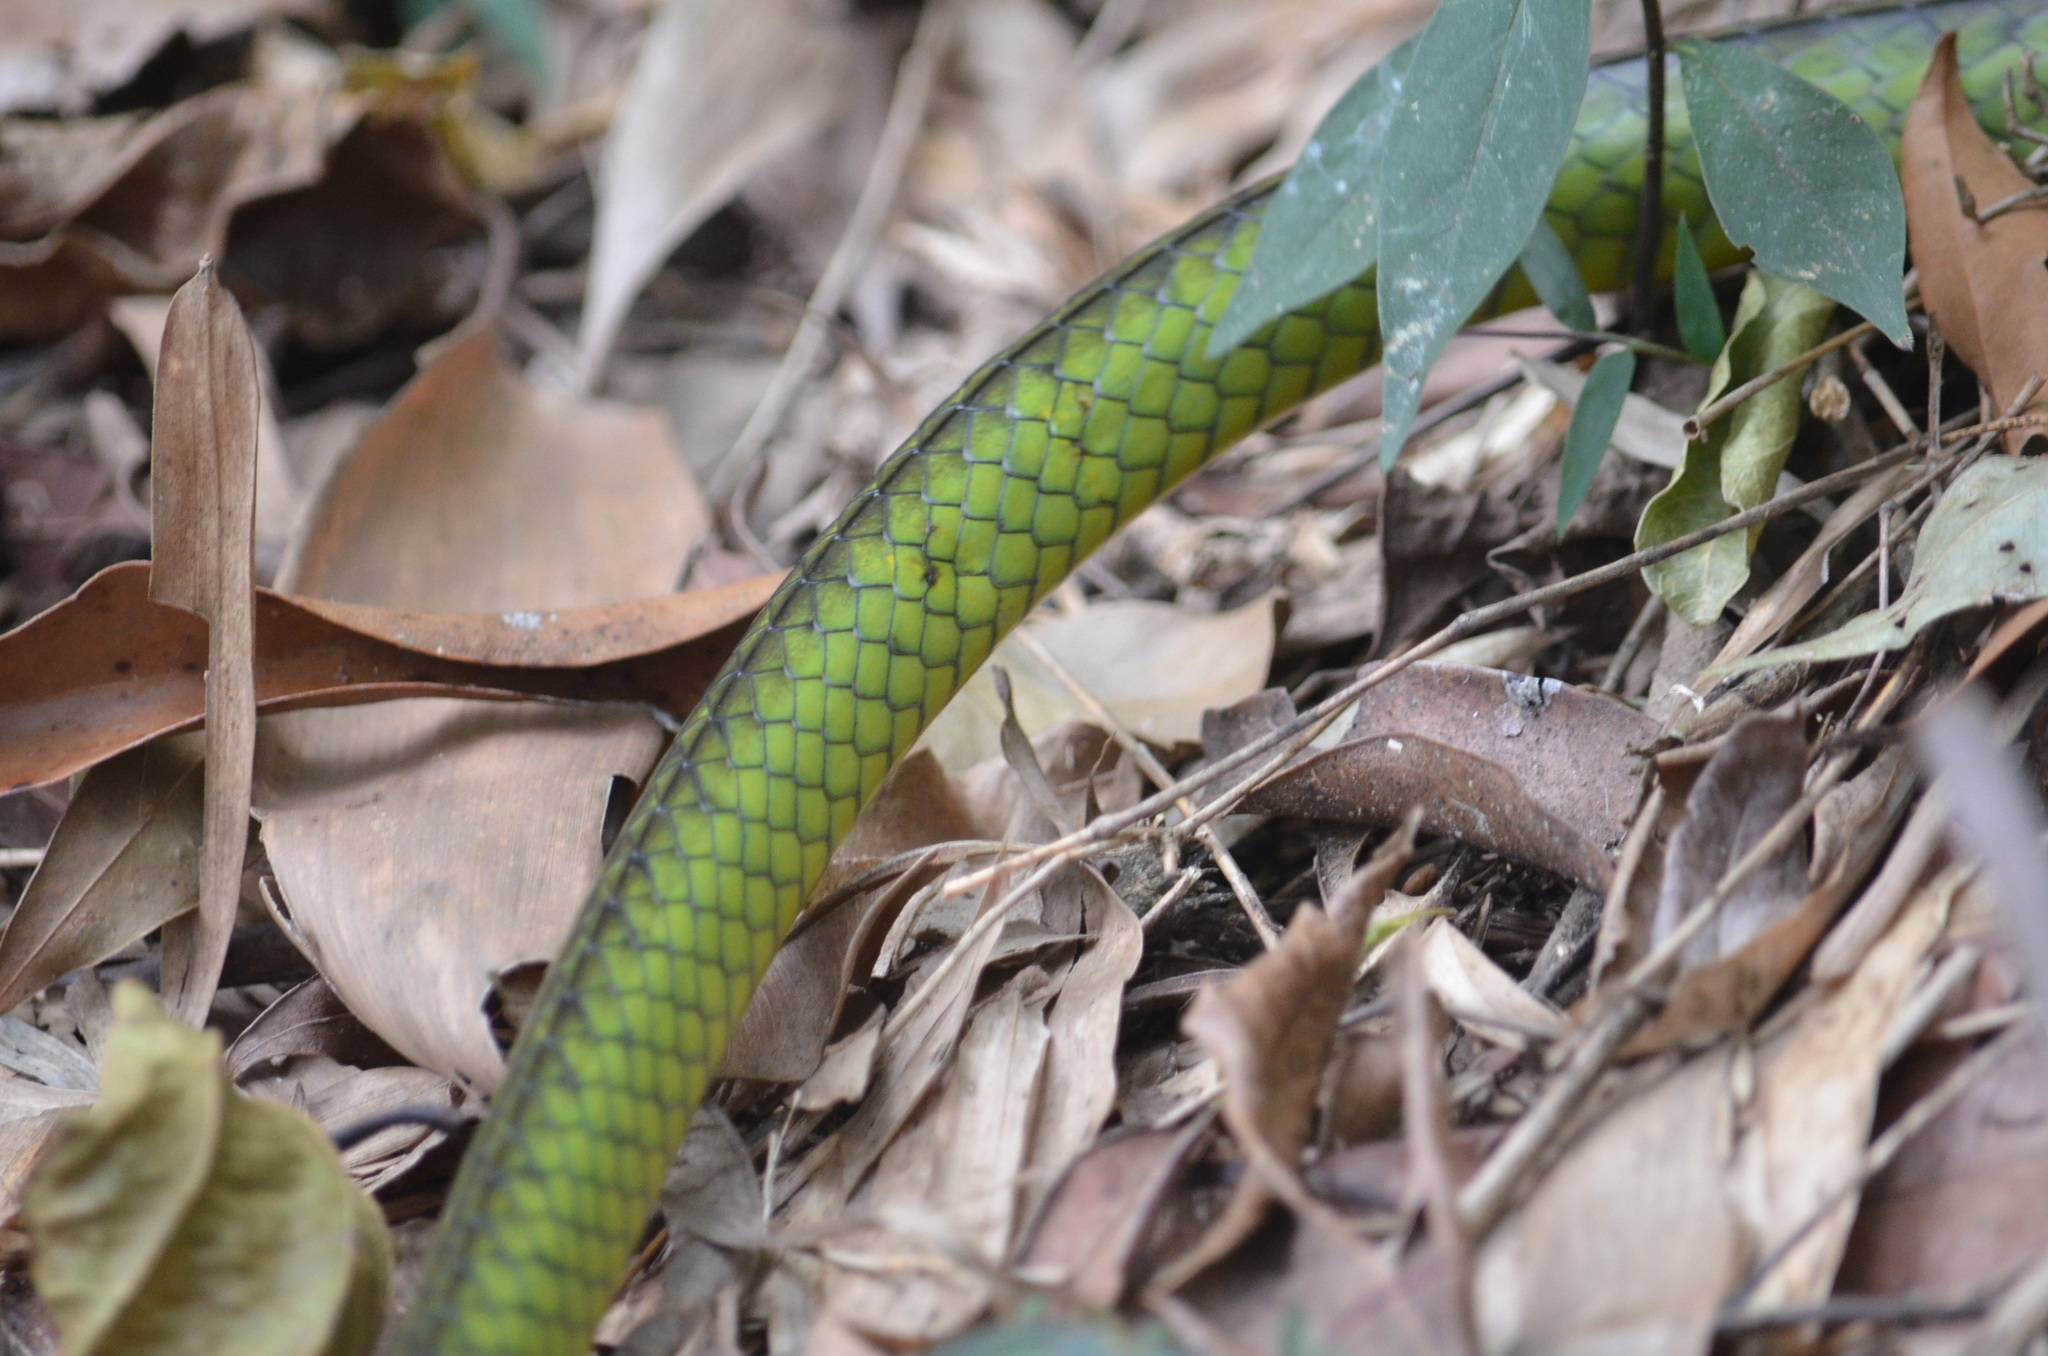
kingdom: Animalia
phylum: Chordata
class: Squamata
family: Colubridae
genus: Chironius
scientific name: Chironius bicarinatus
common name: Two-headed sipo
